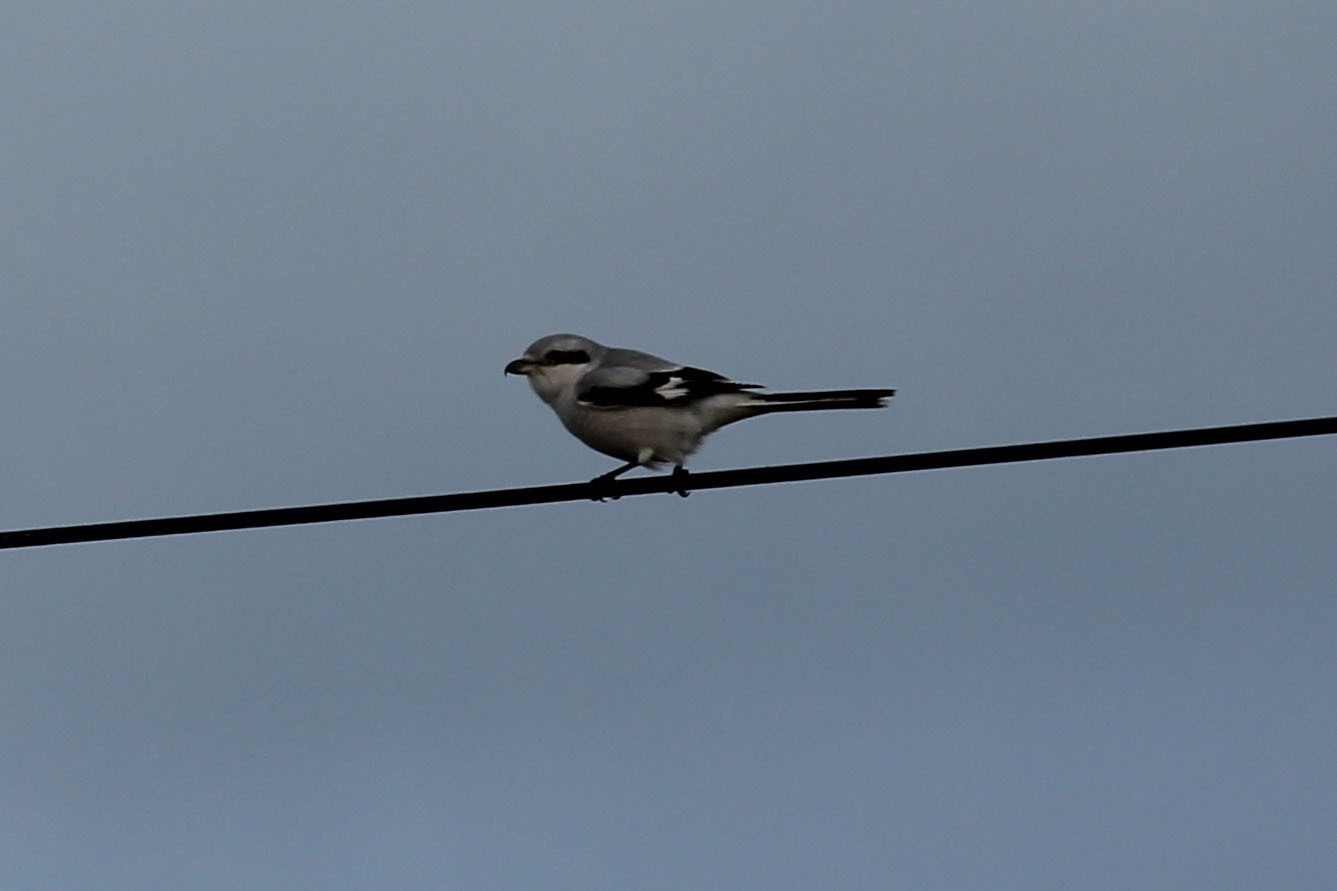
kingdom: Animalia
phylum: Chordata
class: Aves
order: Passeriformes
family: Laniidae
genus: Lanius
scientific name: Lanius excubitor
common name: Great grey shrike
